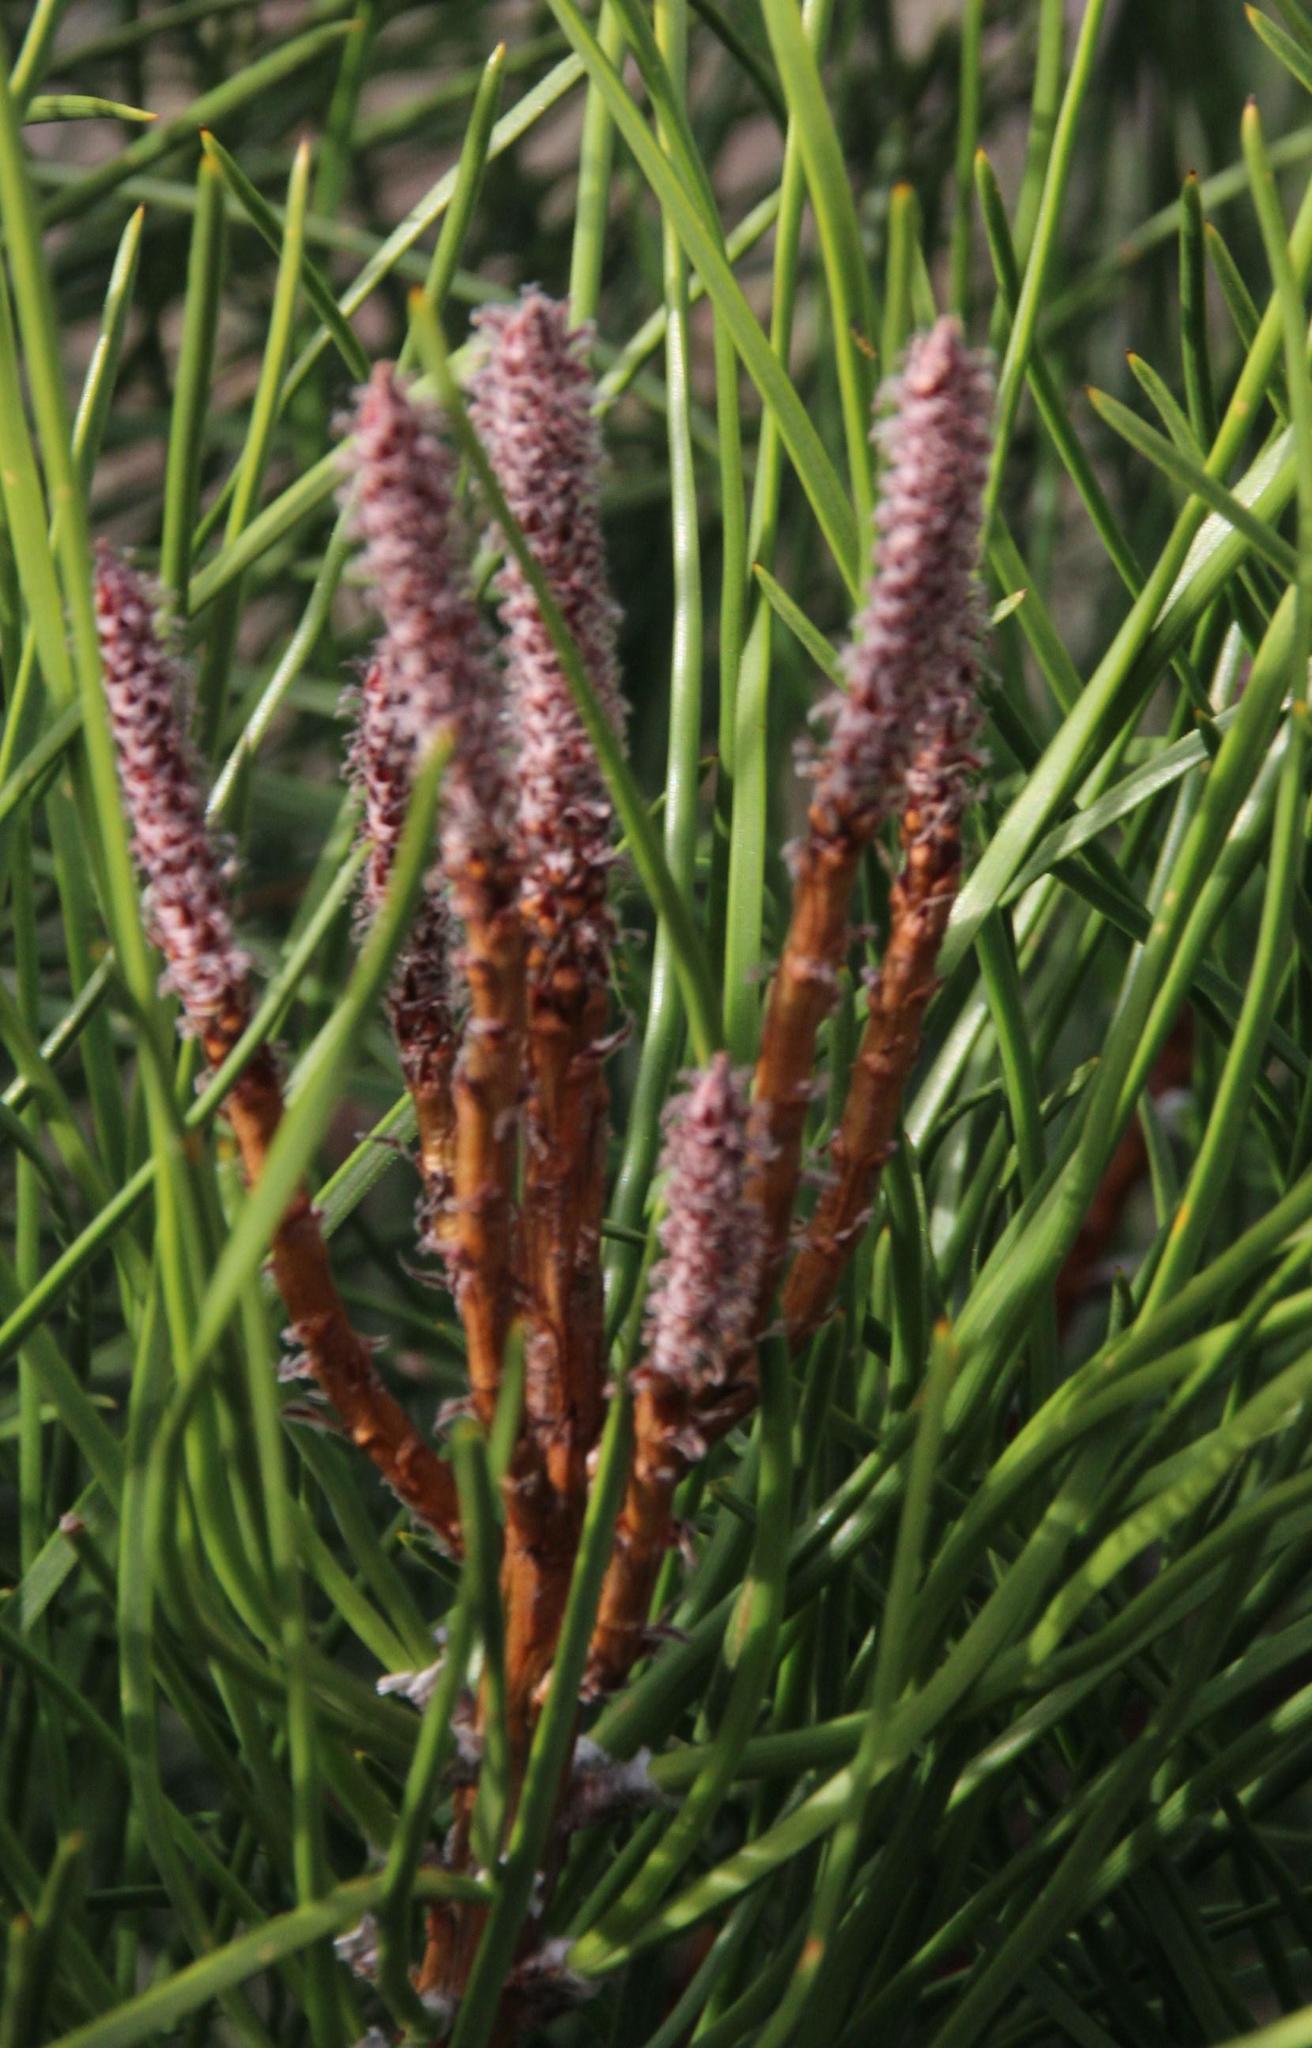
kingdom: Plantae
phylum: Tracheophyta
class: Pinopsida
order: Pinales
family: Pinaceae
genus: Pinus
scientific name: Pinus pinaster
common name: Maritime pine
